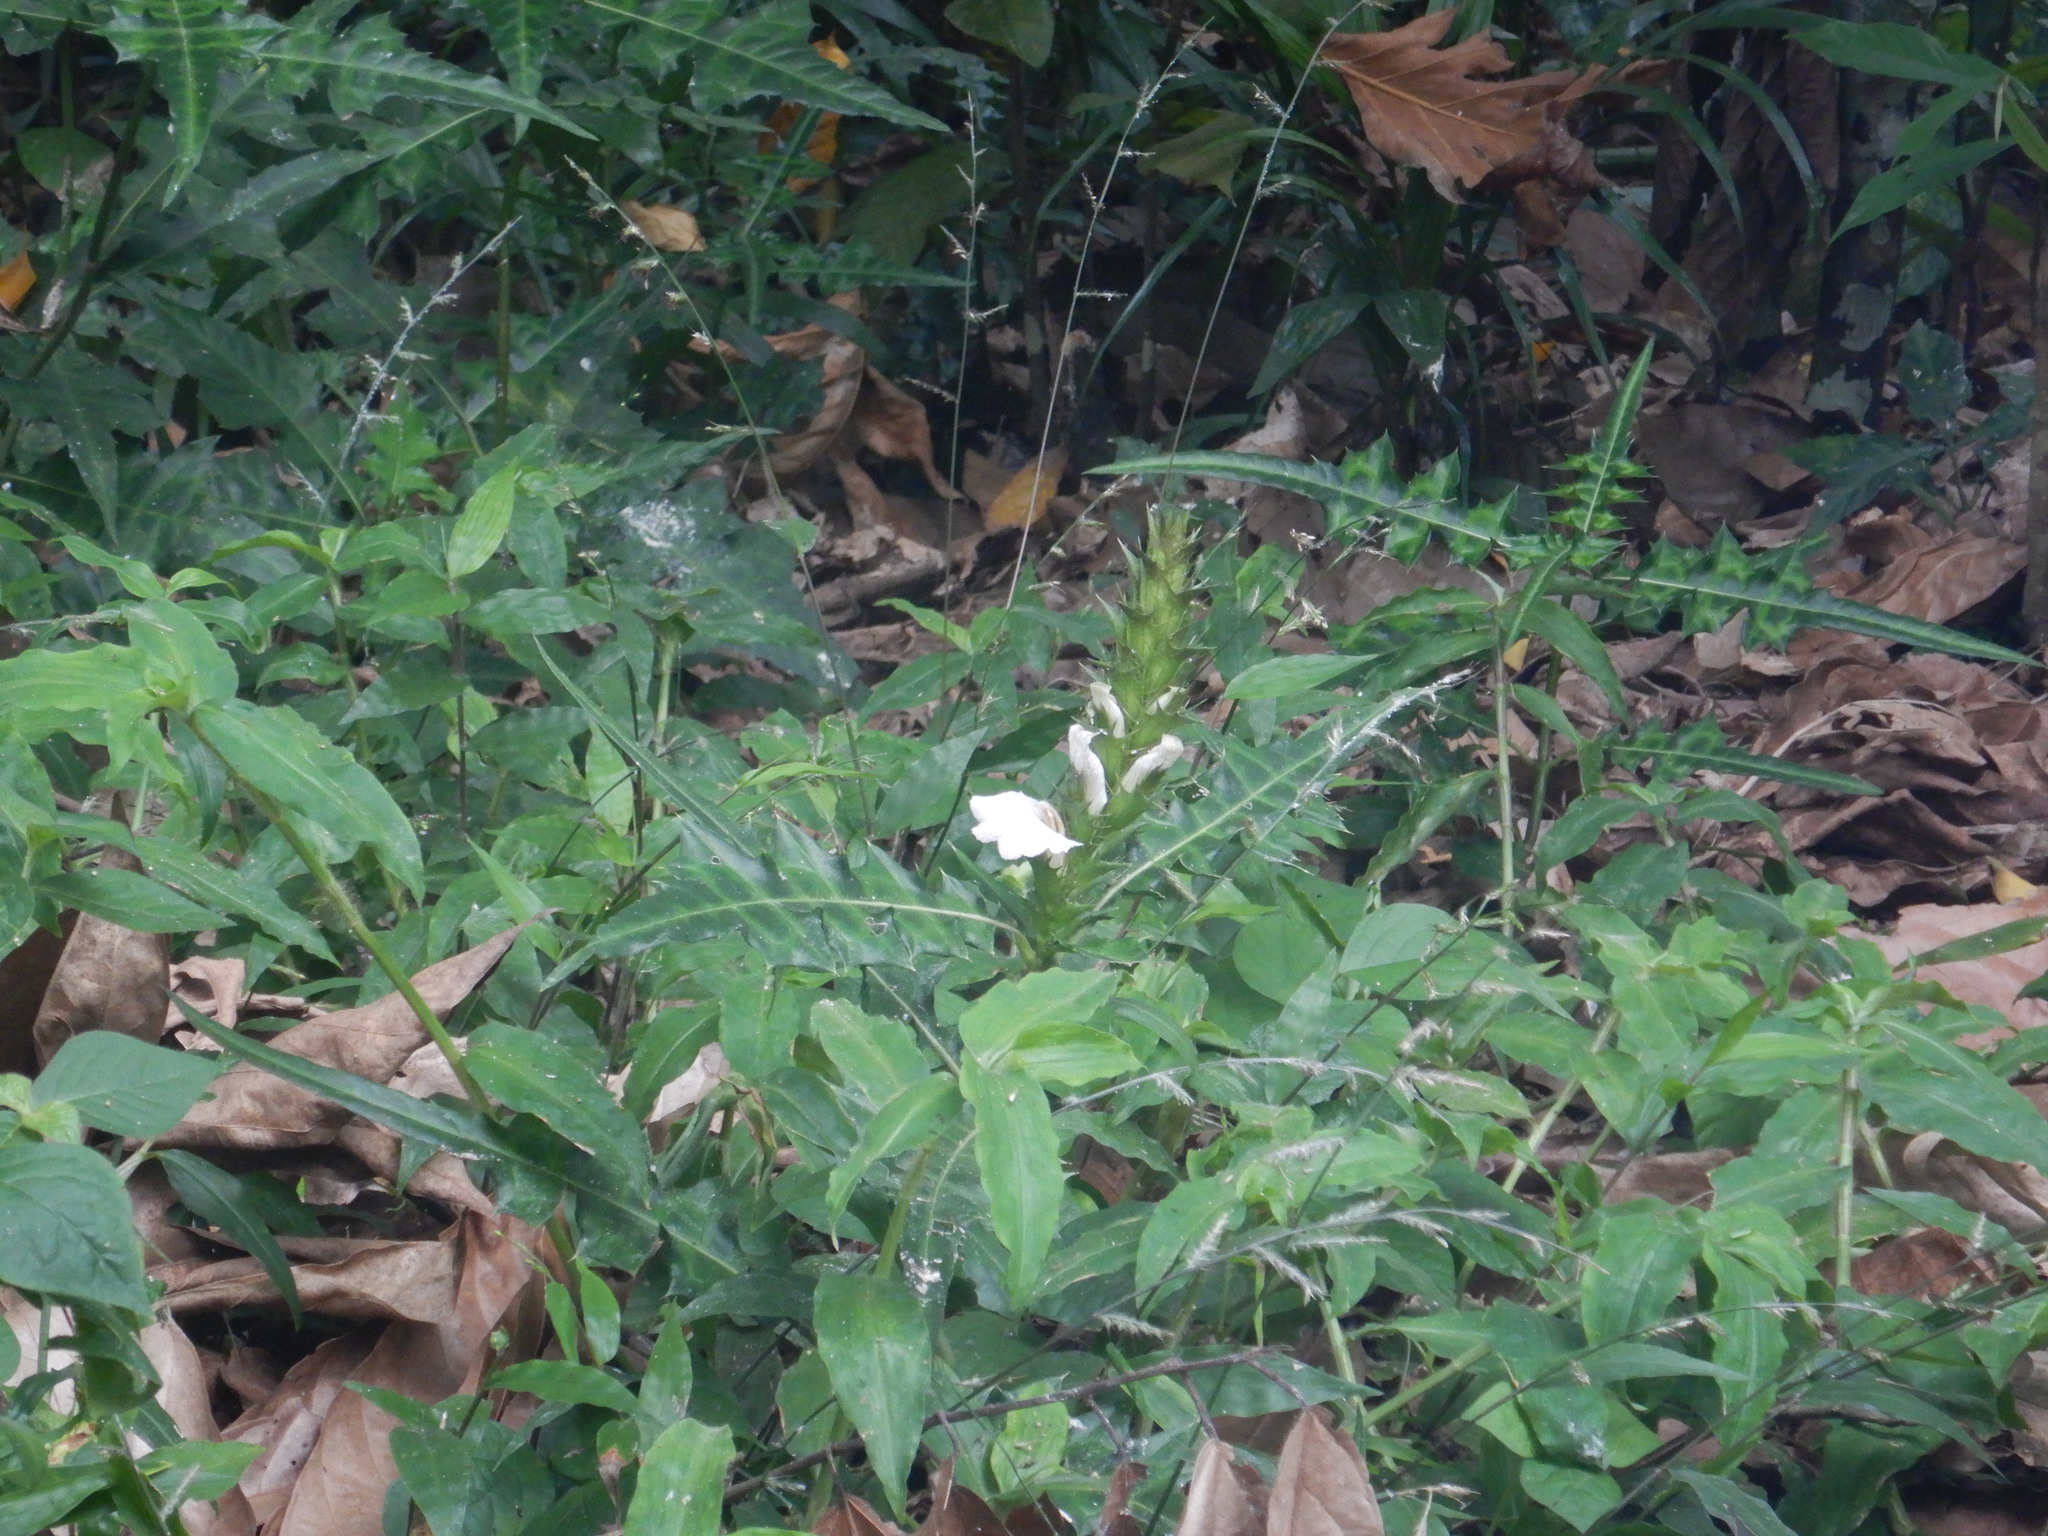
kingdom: Plantae
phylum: Tracheophyta
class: Magnoliopsida
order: Lamiales
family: Acanthaceae
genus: Acanthus
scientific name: Acanthus montanus
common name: Mountain thistle
